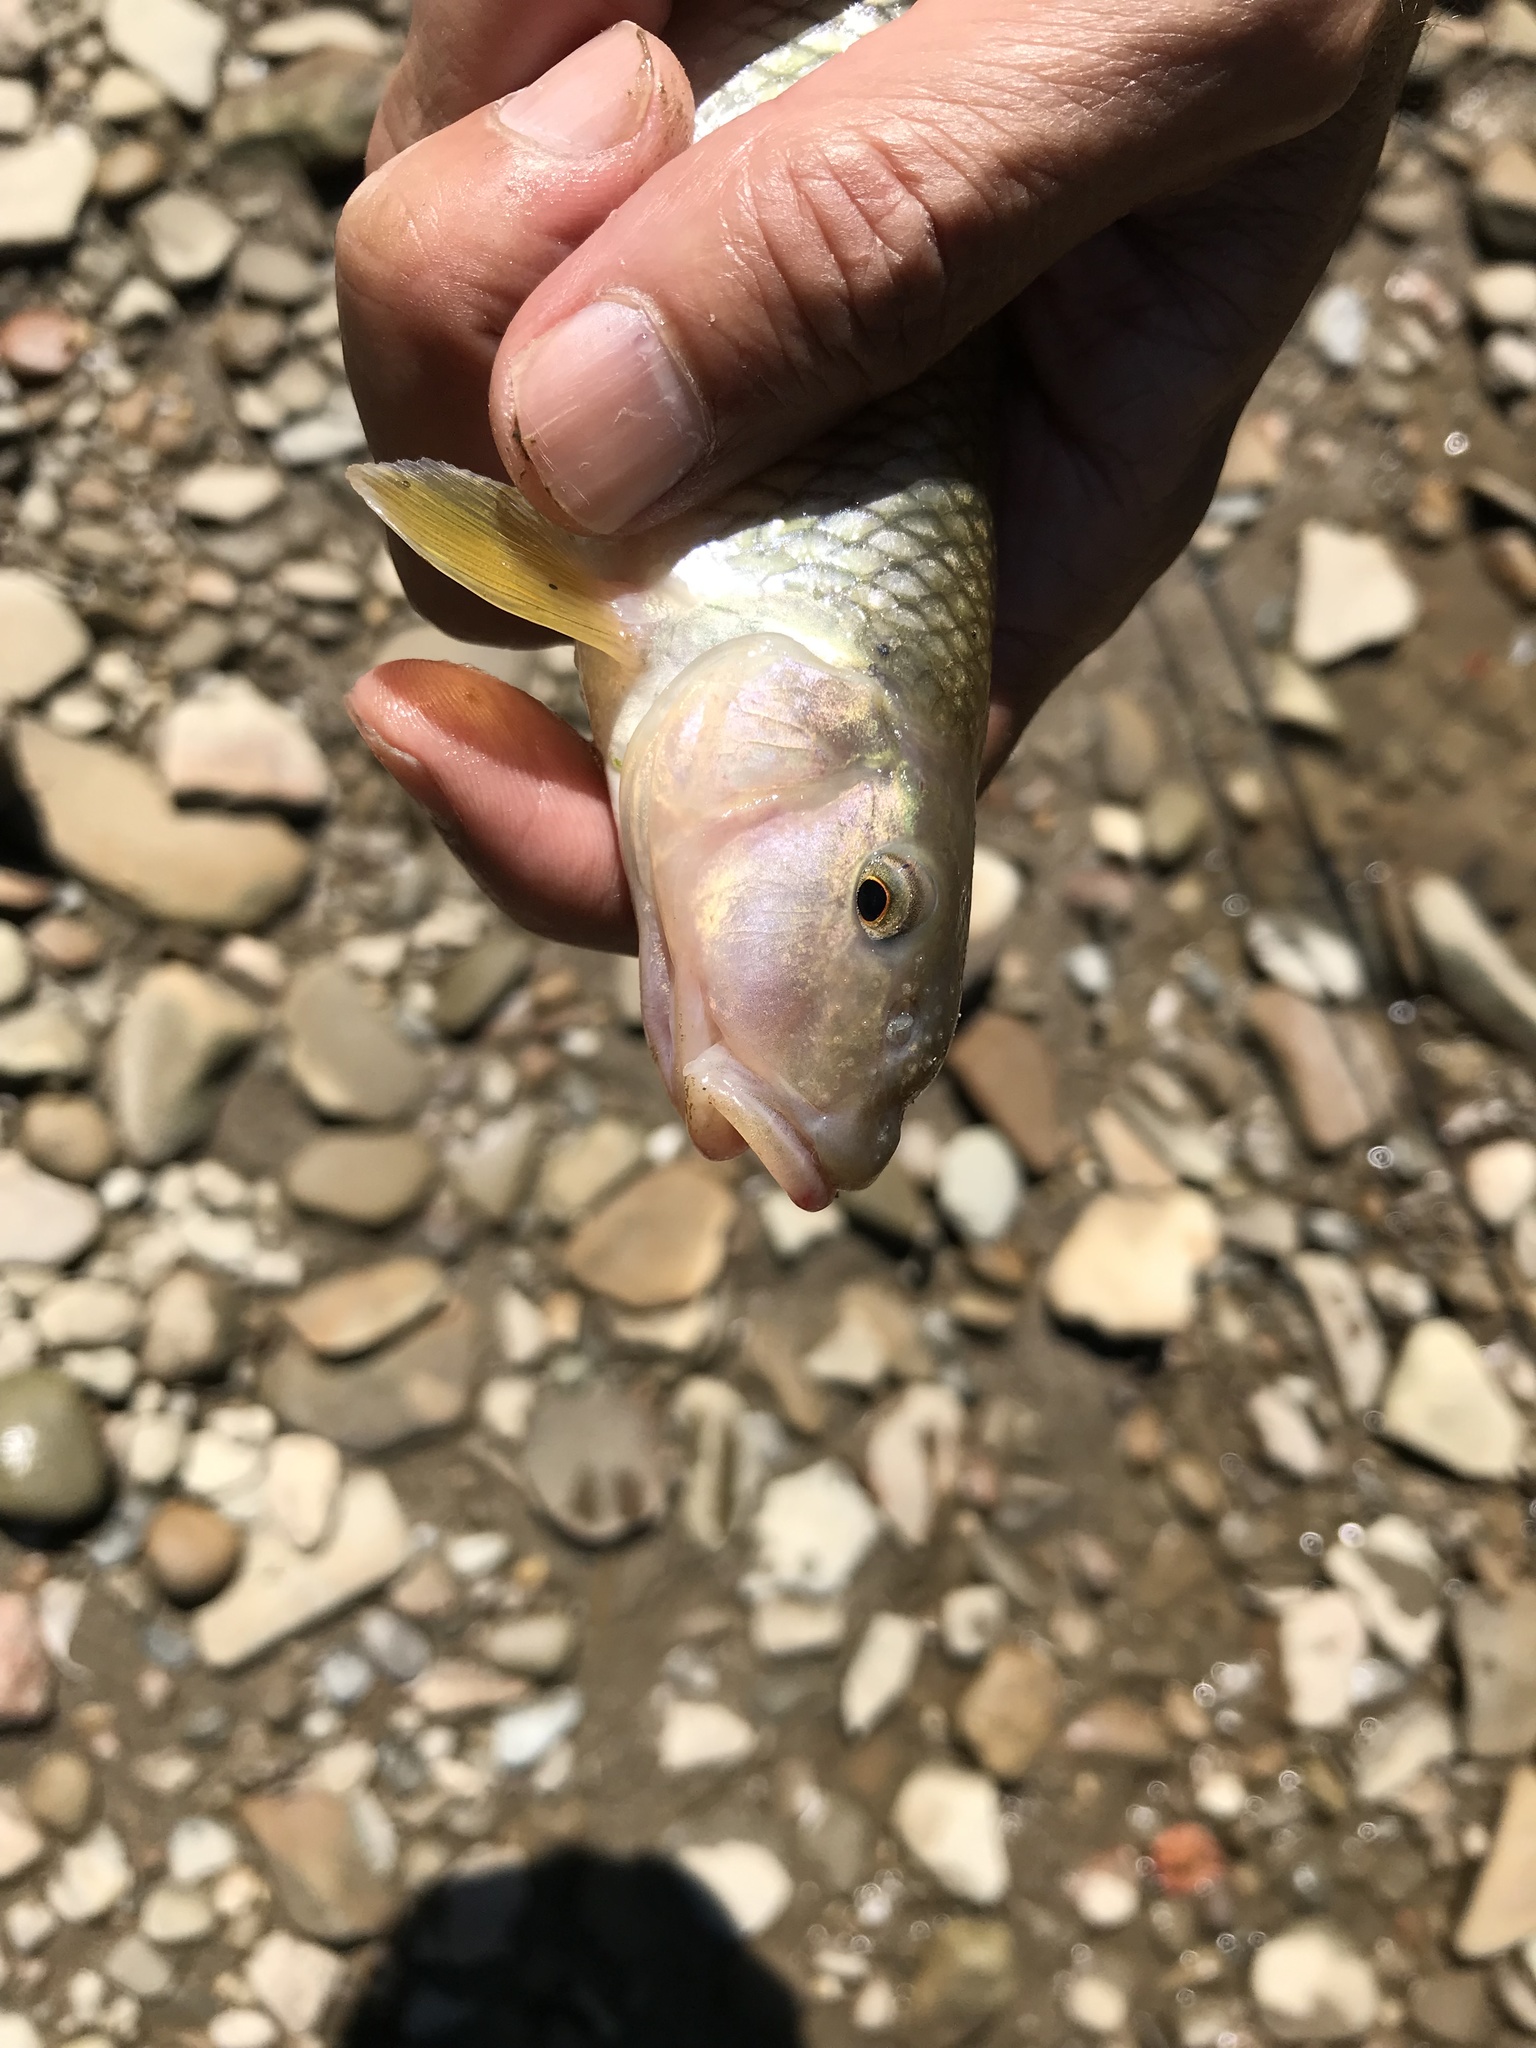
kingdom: Animalia
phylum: Chordata
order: Cypriniformes
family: Cyprinidae
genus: Nocomis
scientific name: Nocomis micropogon
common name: River chub
